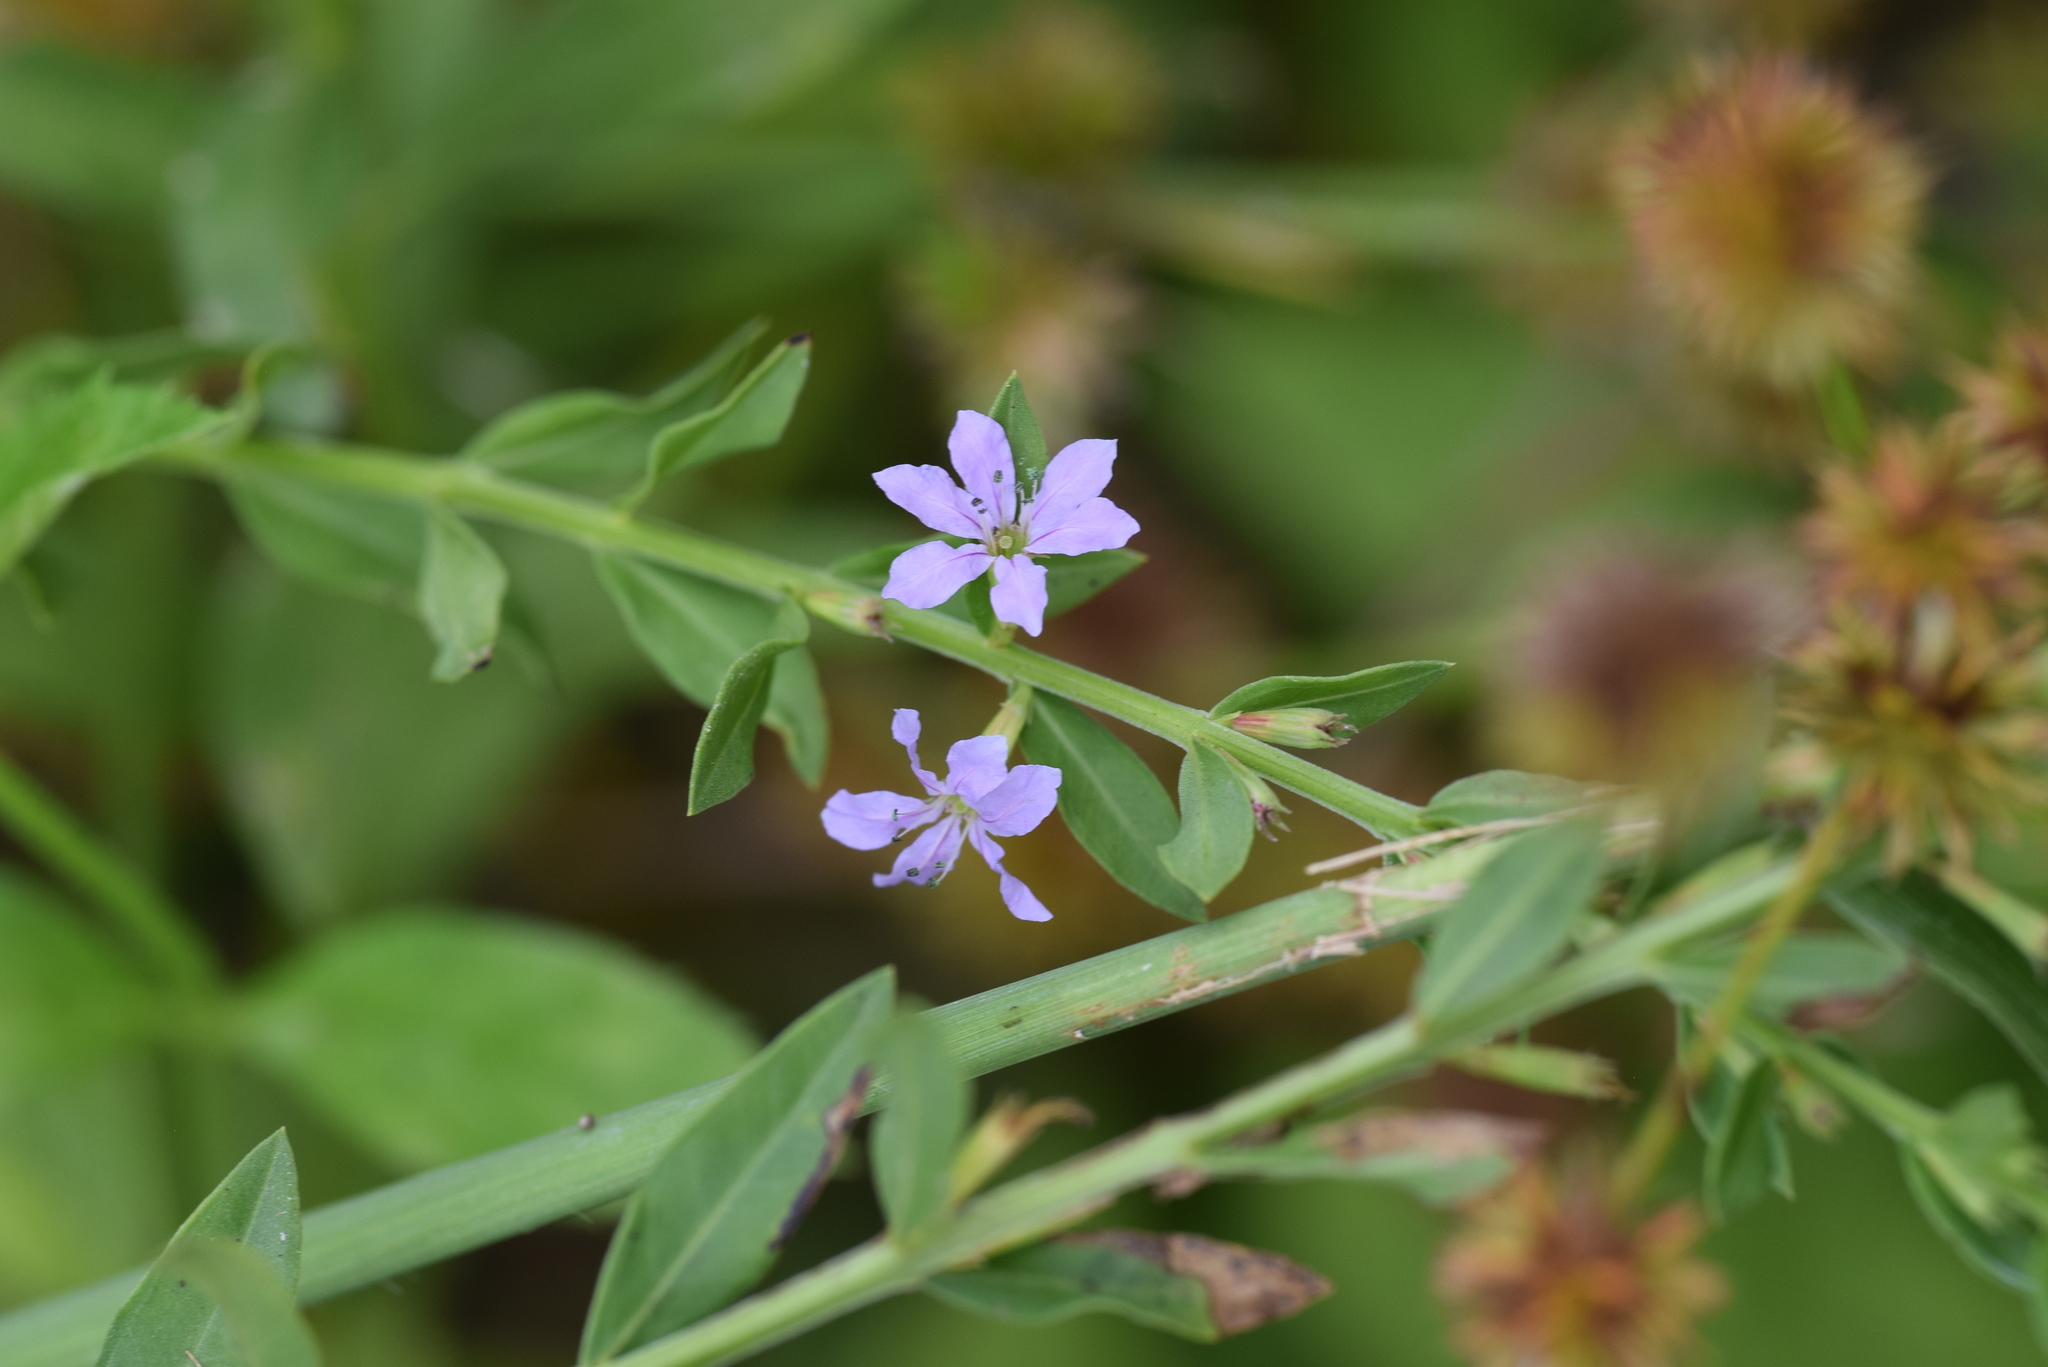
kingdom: Plantae
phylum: Tracheophyta
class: Magnoliopsida
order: Myrtales
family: Lythraceae
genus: Lythrum
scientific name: Lythrum alatum
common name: Winged loosestrife
